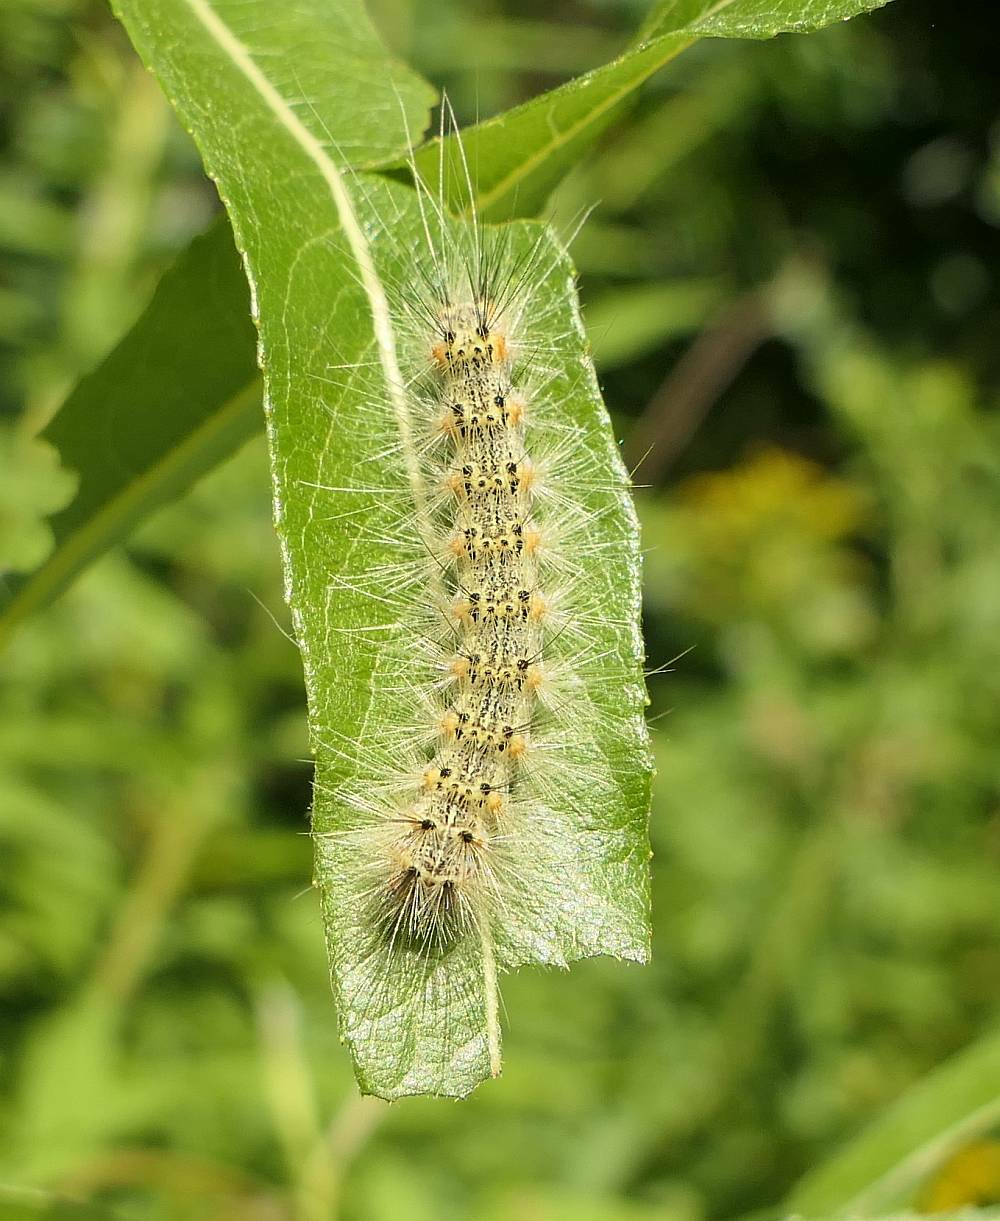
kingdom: Animalia
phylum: Arthropoda
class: Insecta
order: Lepidoptera
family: Erebidae
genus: Hyphantria
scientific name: Hyphantria cunea
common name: American white moth
